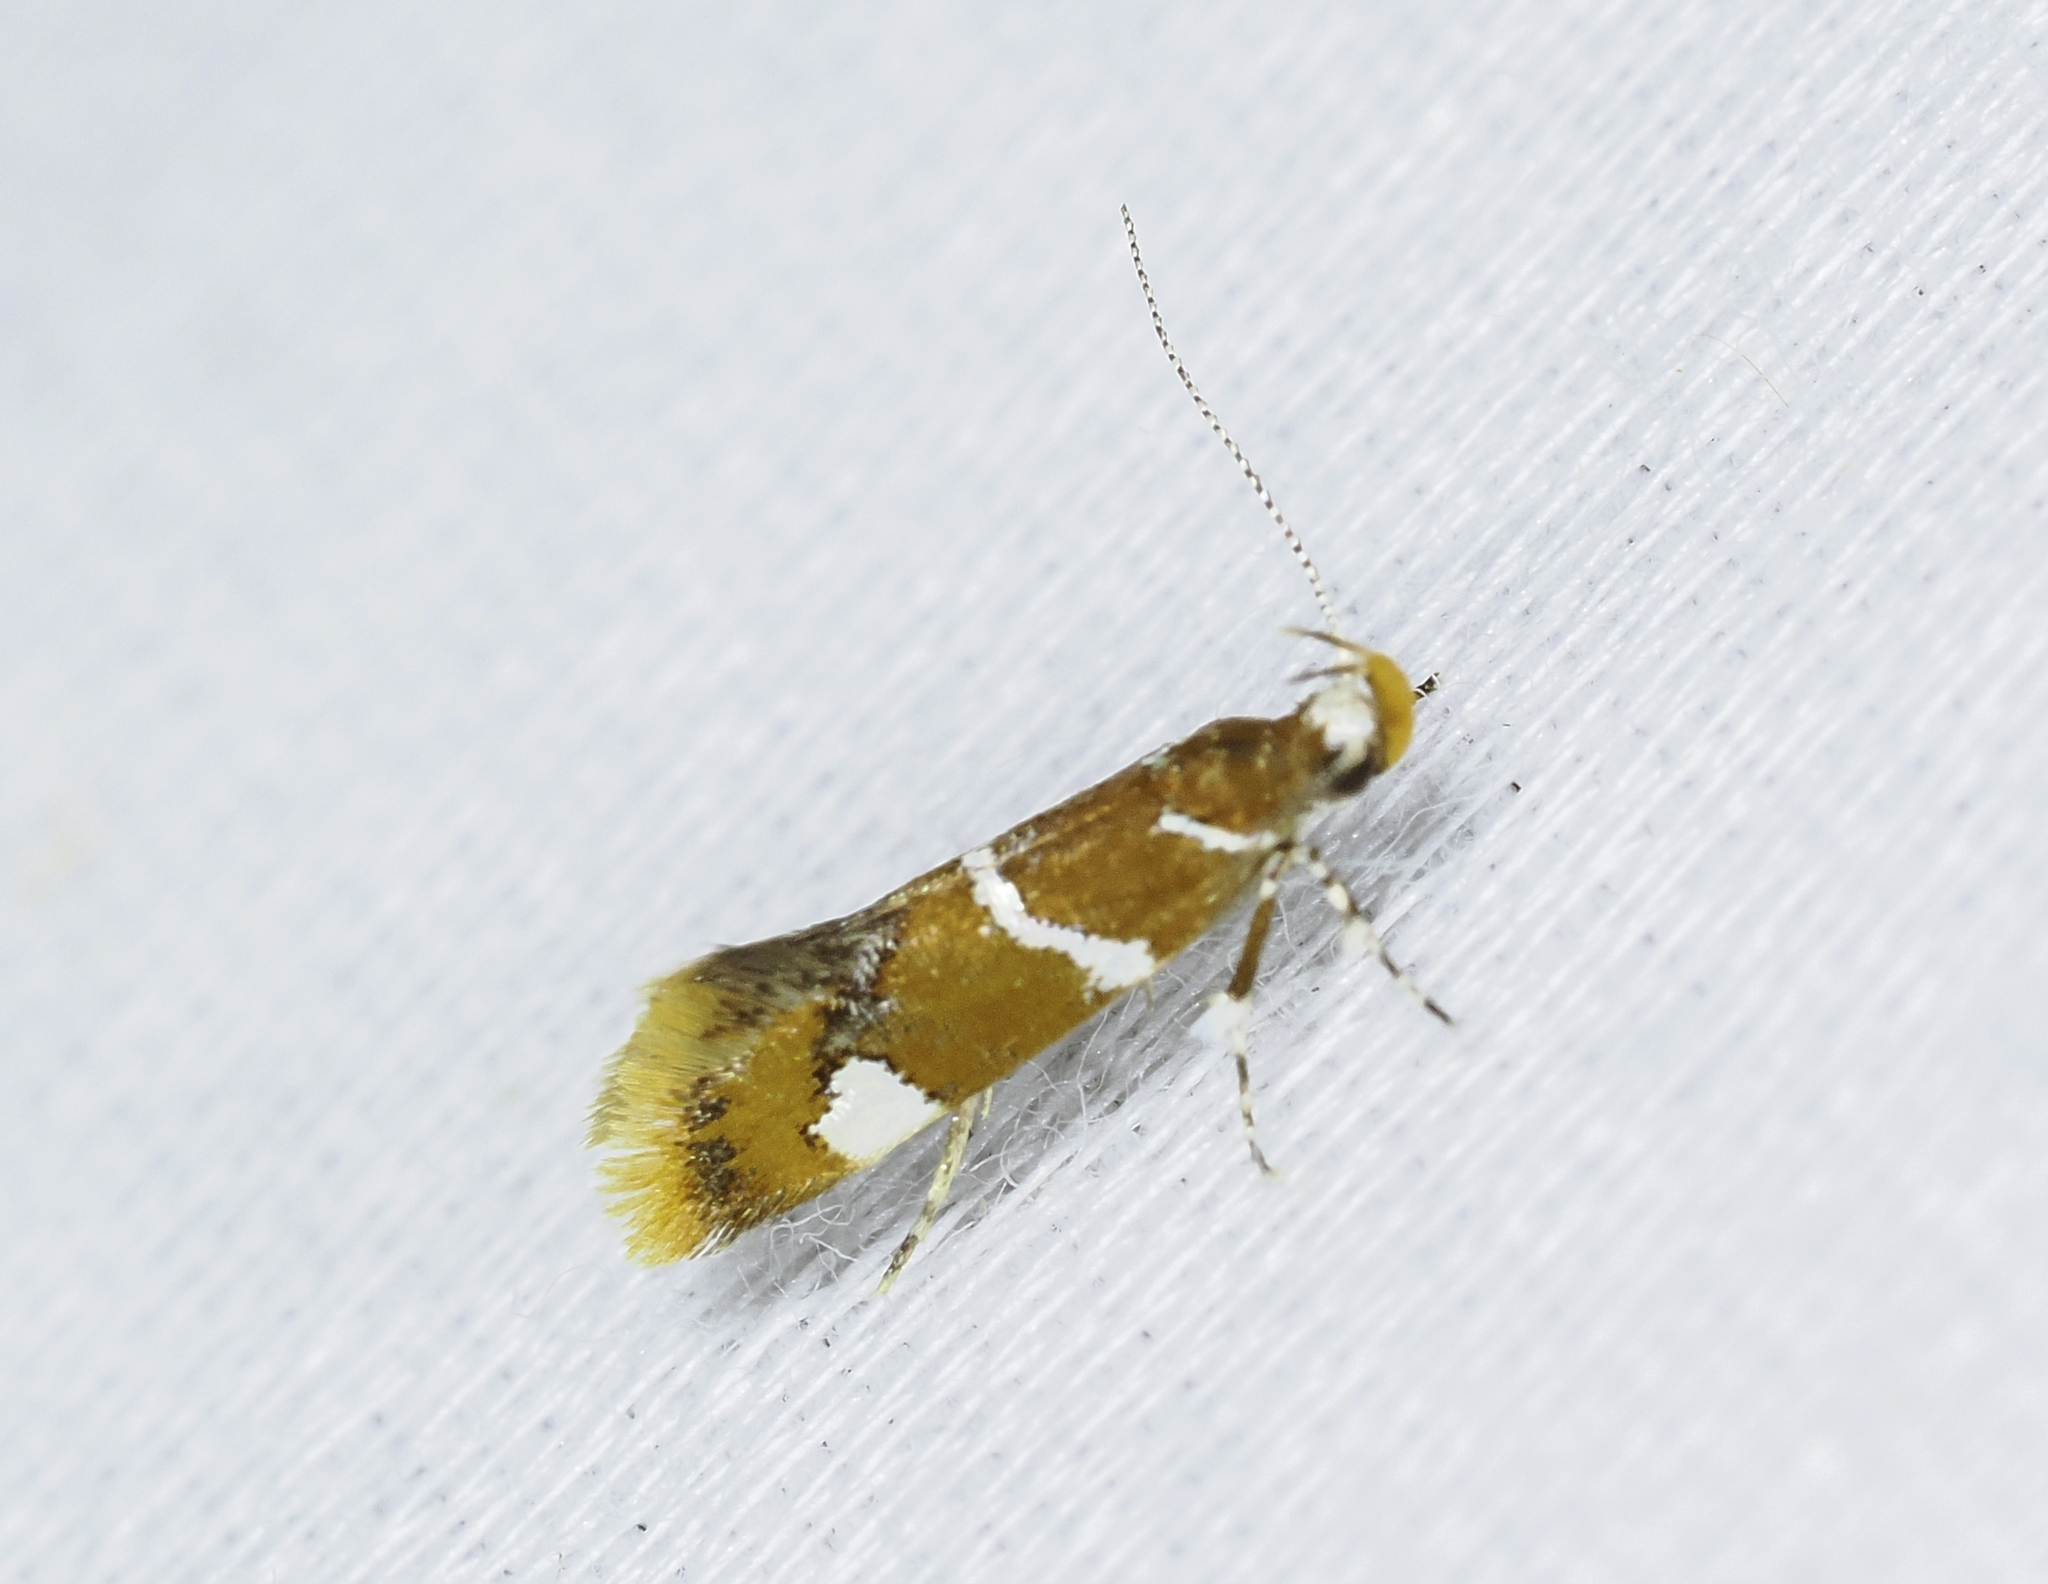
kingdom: Animalia
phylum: Arthropoda
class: Insecta
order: Lepidoptera
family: Oecophoridae
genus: Promalactis
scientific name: Promalactis suzukiella
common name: Moth
